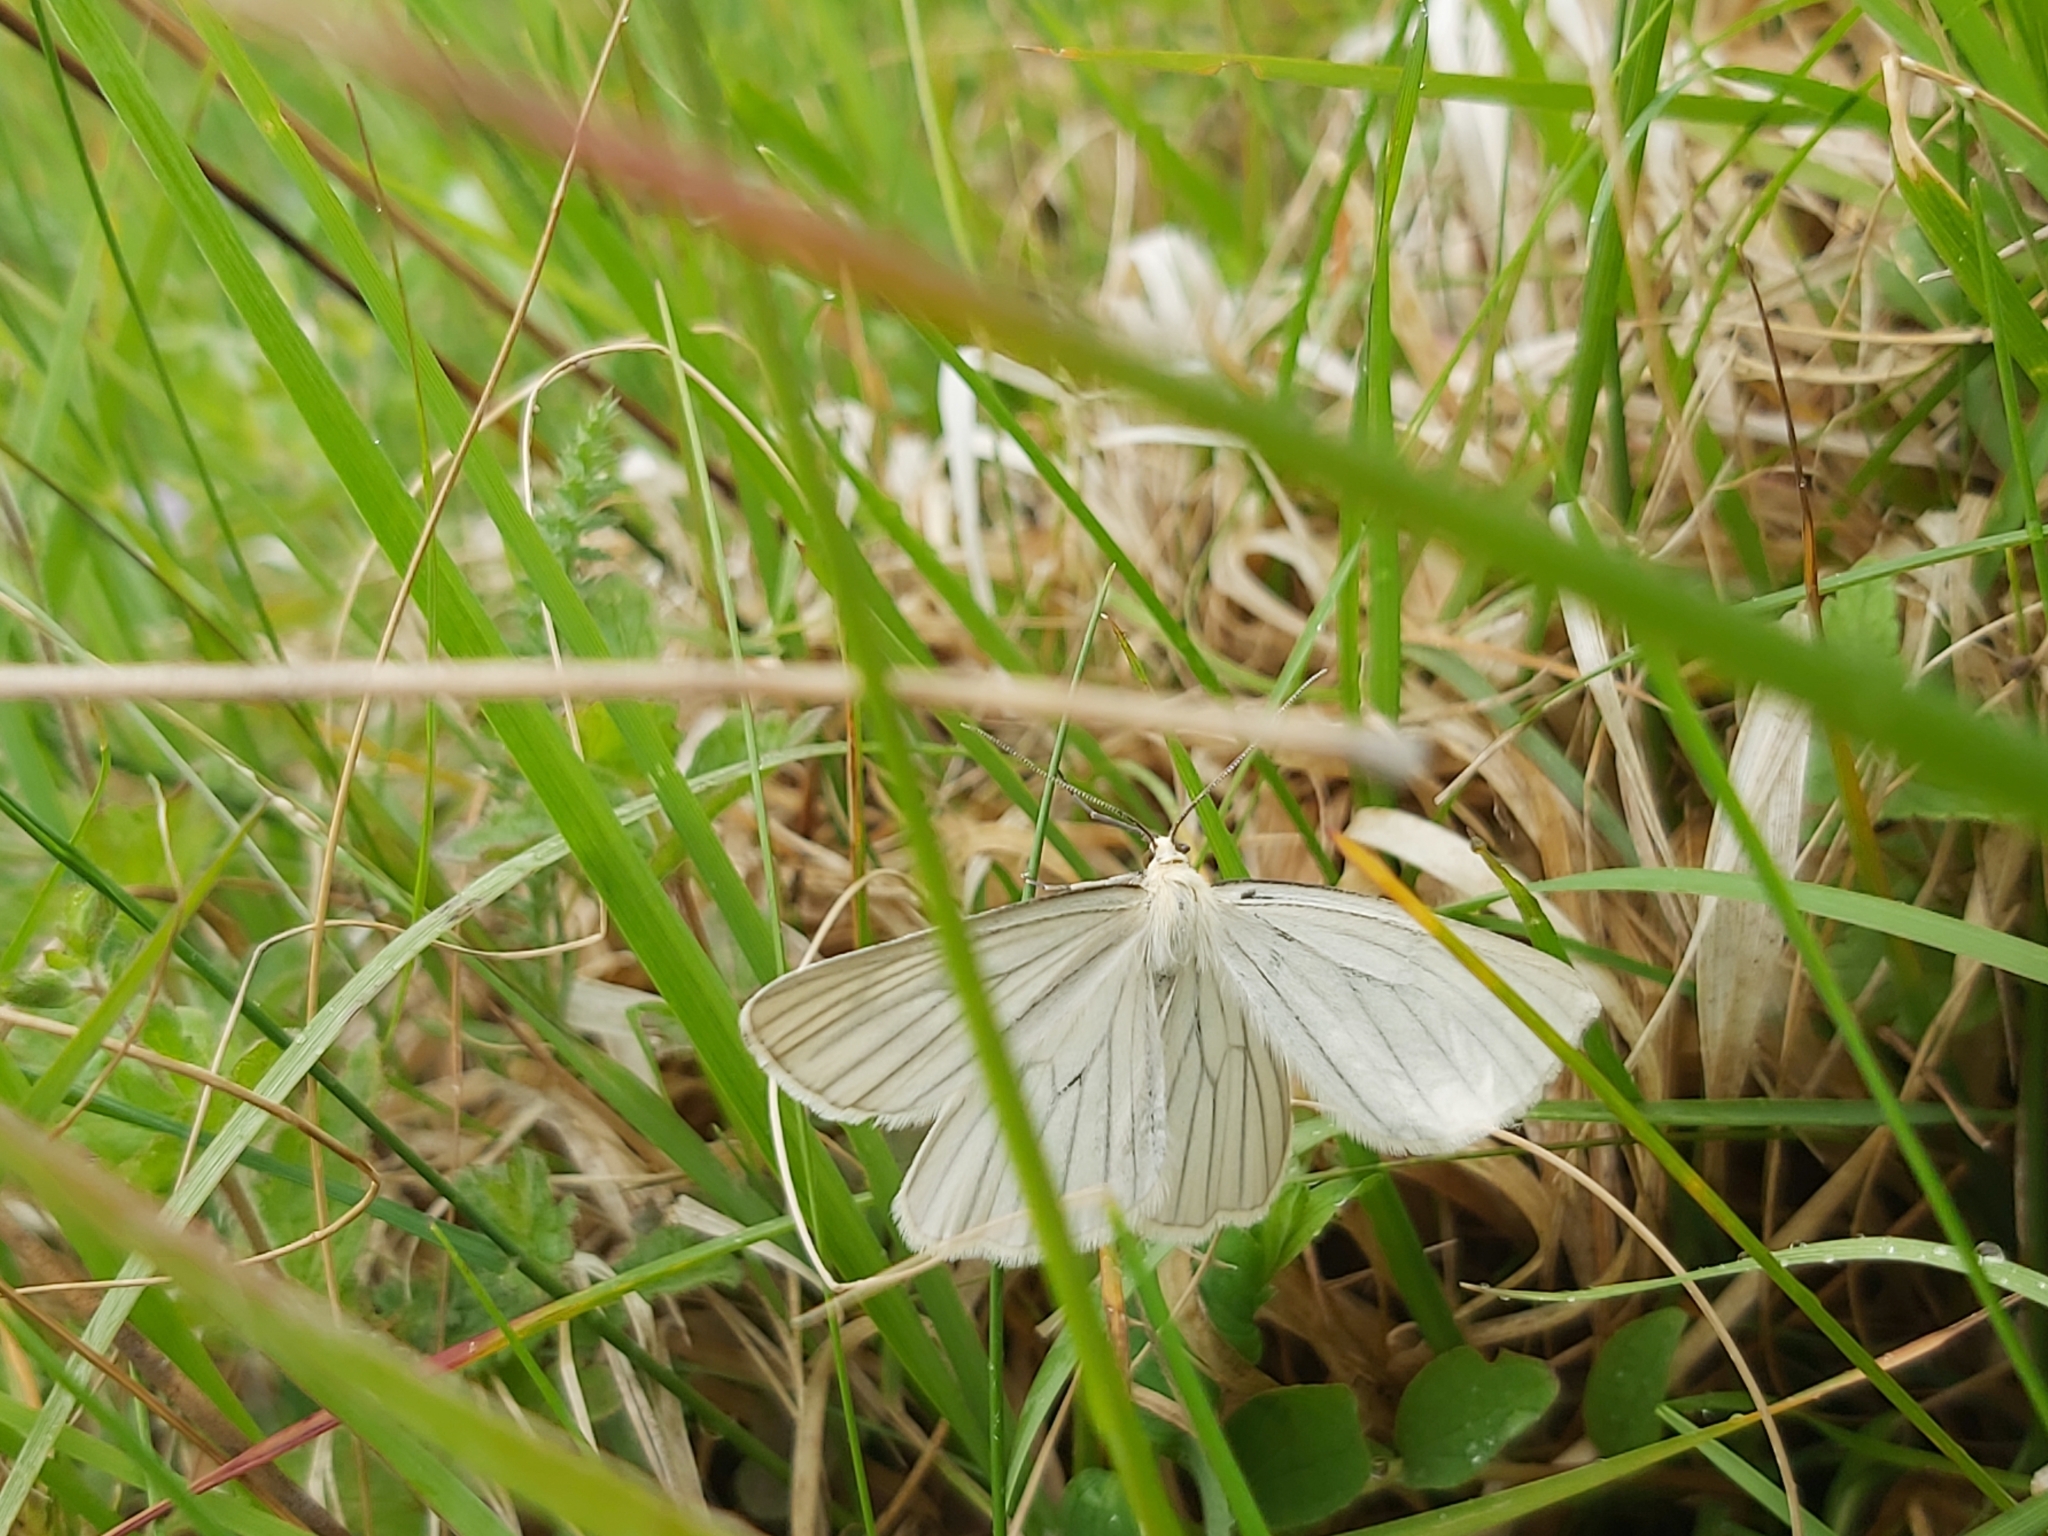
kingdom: Animalia
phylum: Arthropoda
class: Insecta
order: Lepidoptera
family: Geometridae
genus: Siona
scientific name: Siona lineata
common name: Black-veined moth
